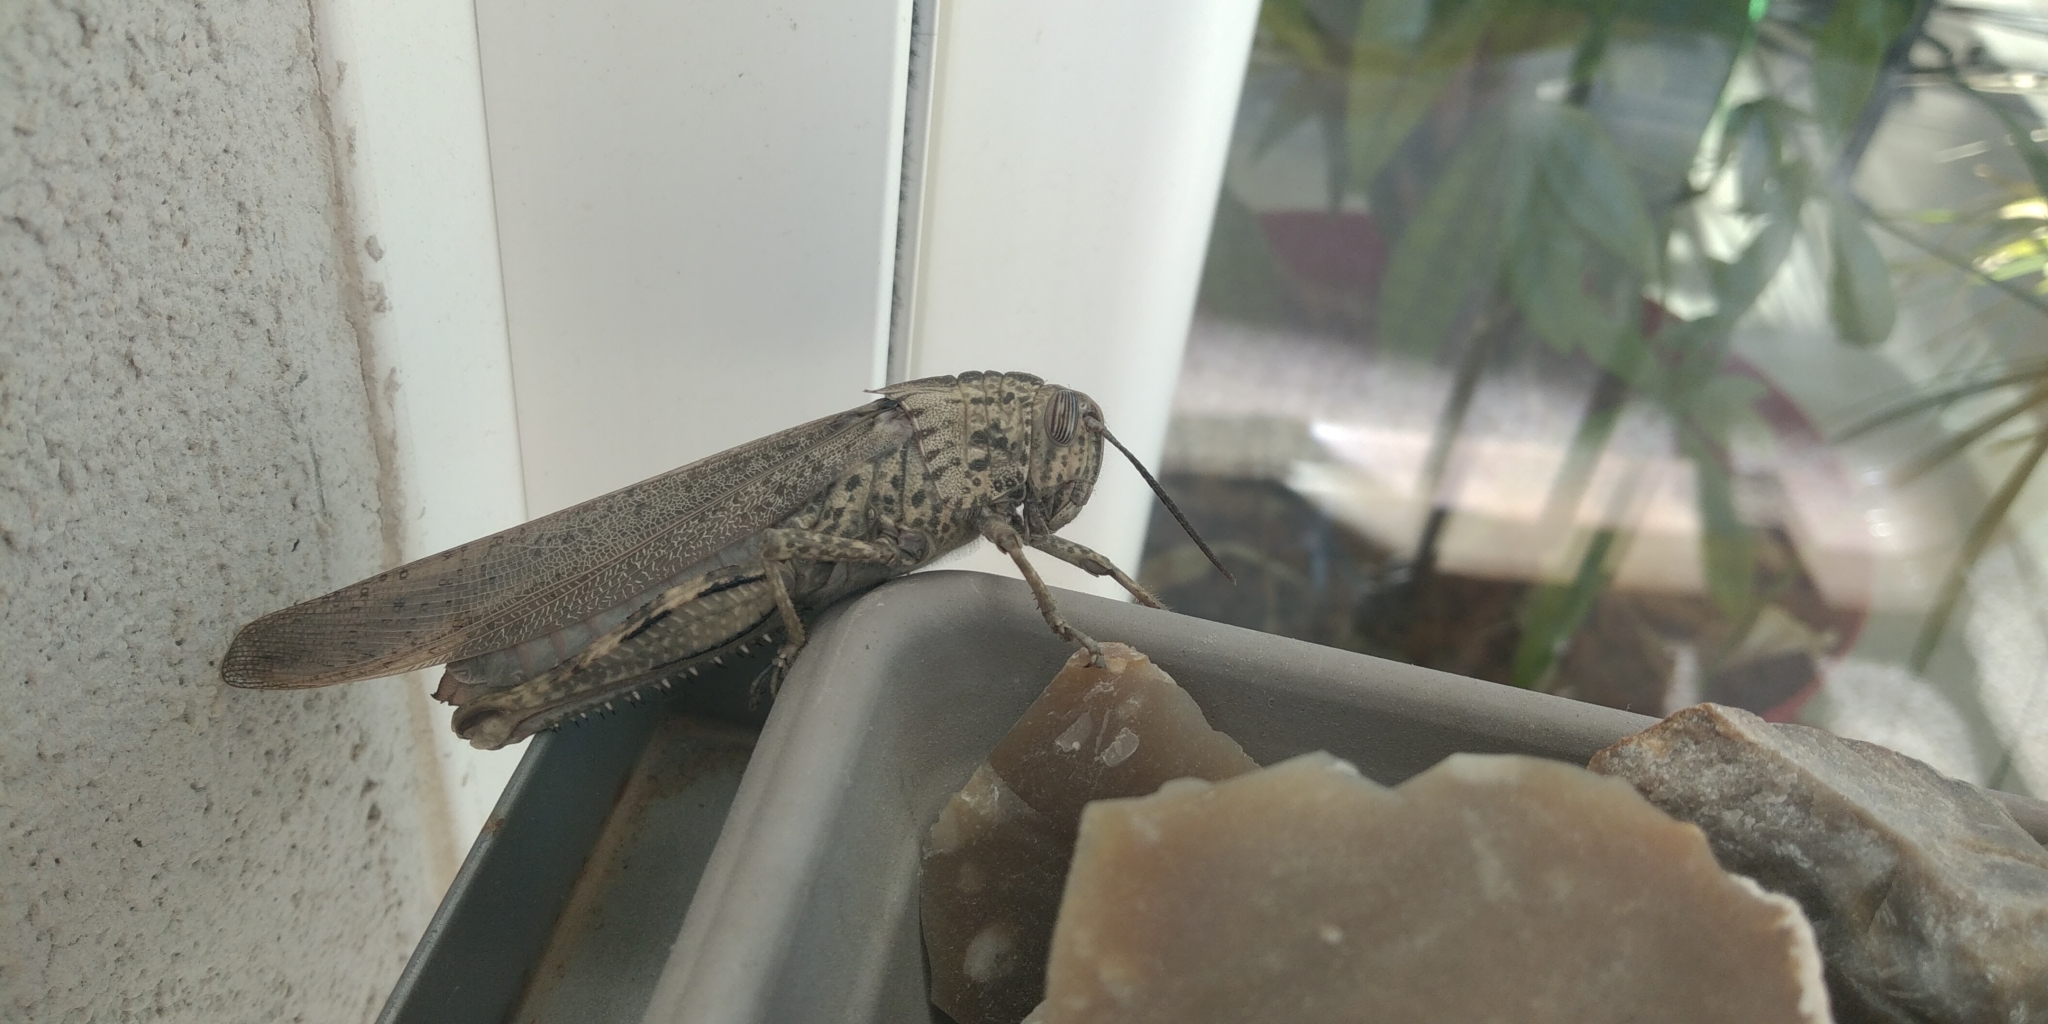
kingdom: Animalia
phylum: Arthropoda
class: Insecta
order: Orthoptera
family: Acrididae
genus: Anacridium
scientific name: Anacridium aegyptium
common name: Egyptian grasshopper
